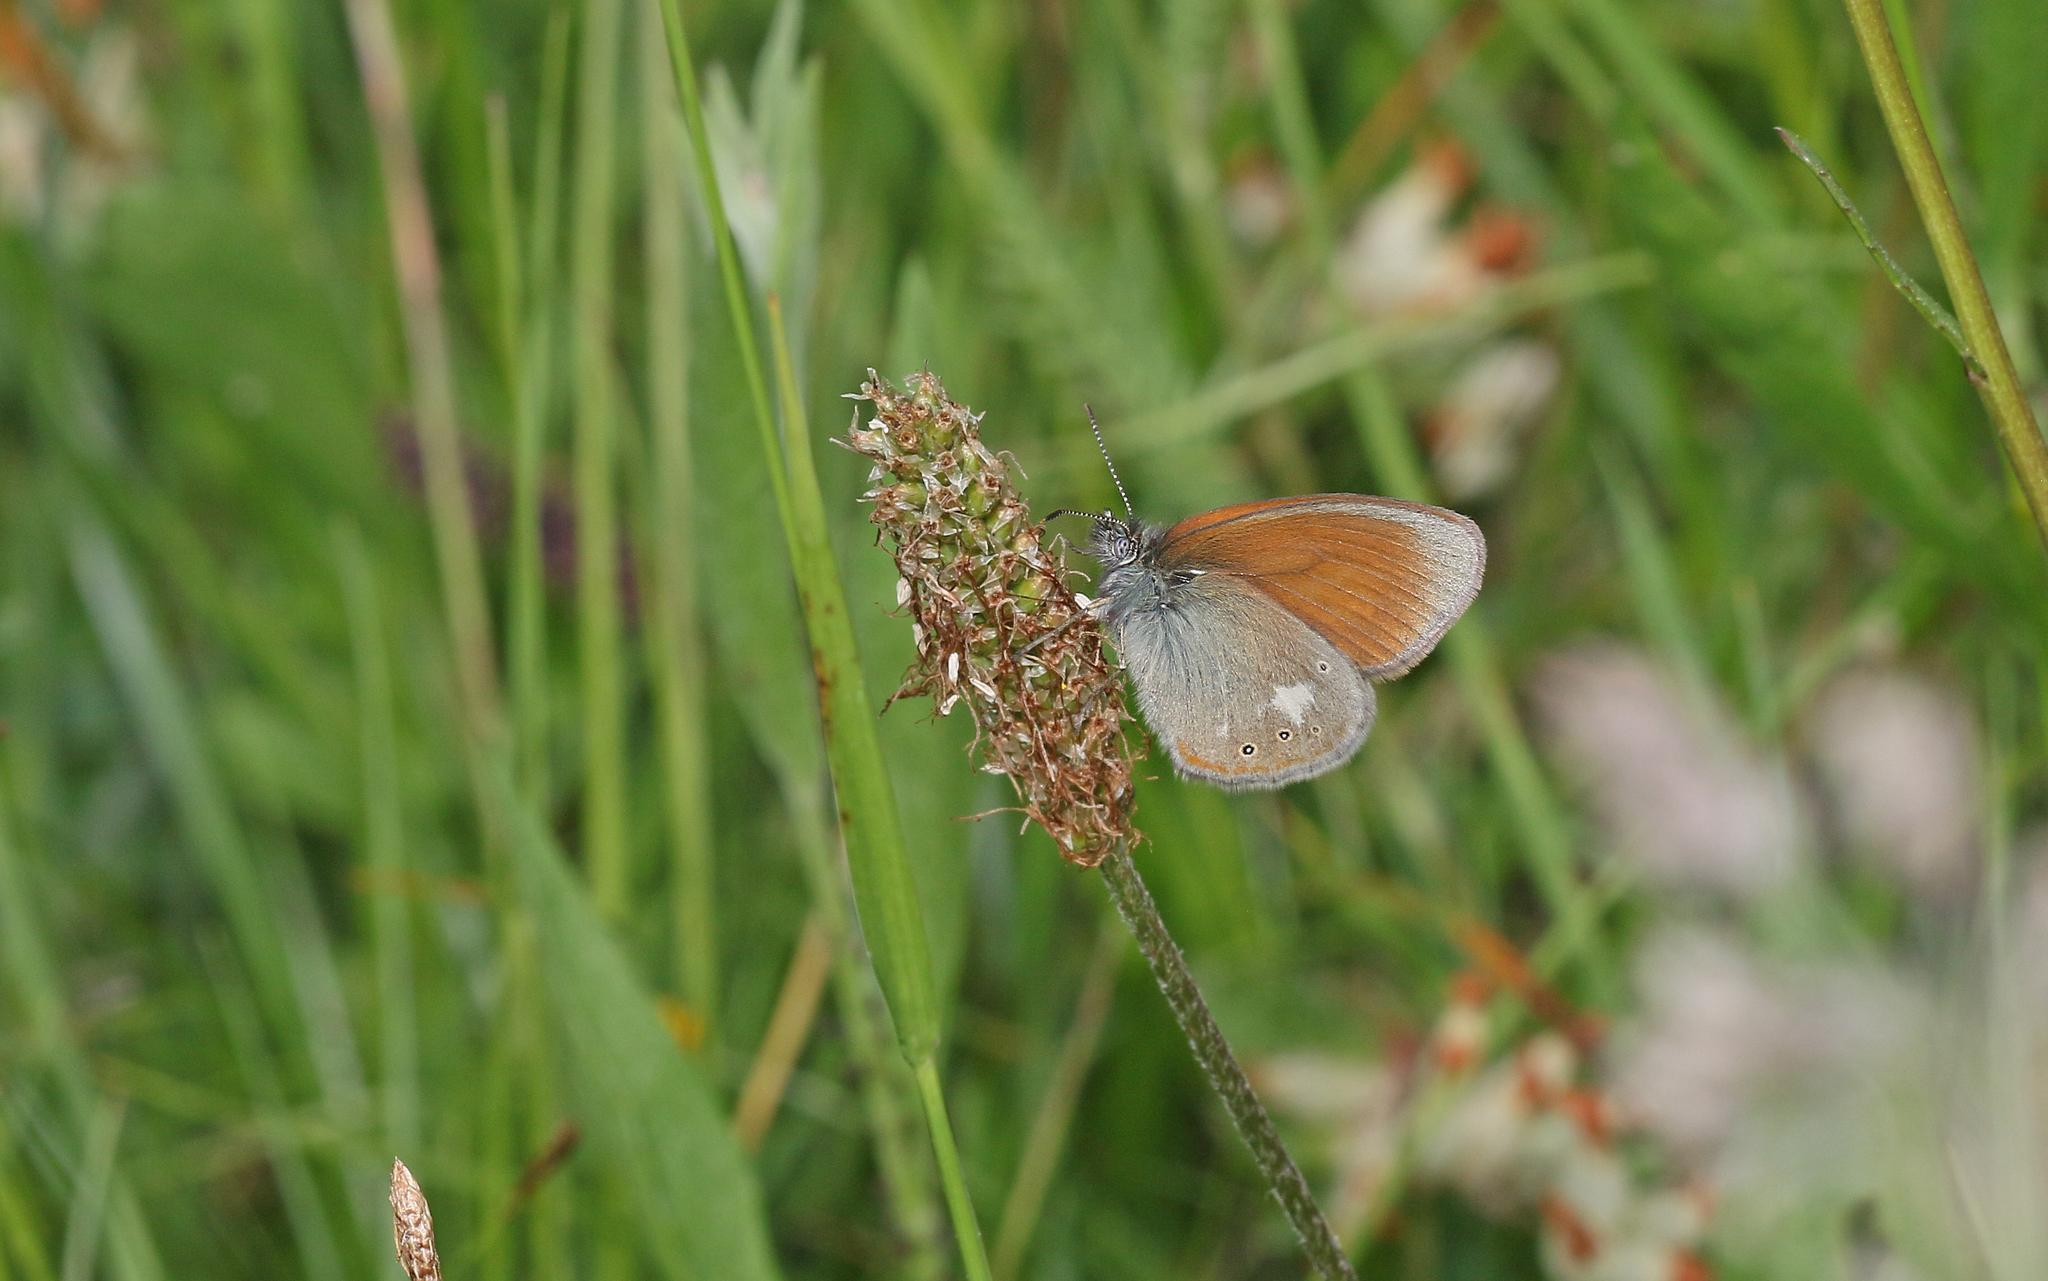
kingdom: Animalia
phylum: Arthropoda
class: Insecta
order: Lepidoptera
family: Nymphalidae
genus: Coenonympha
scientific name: Coenonympha iphis
